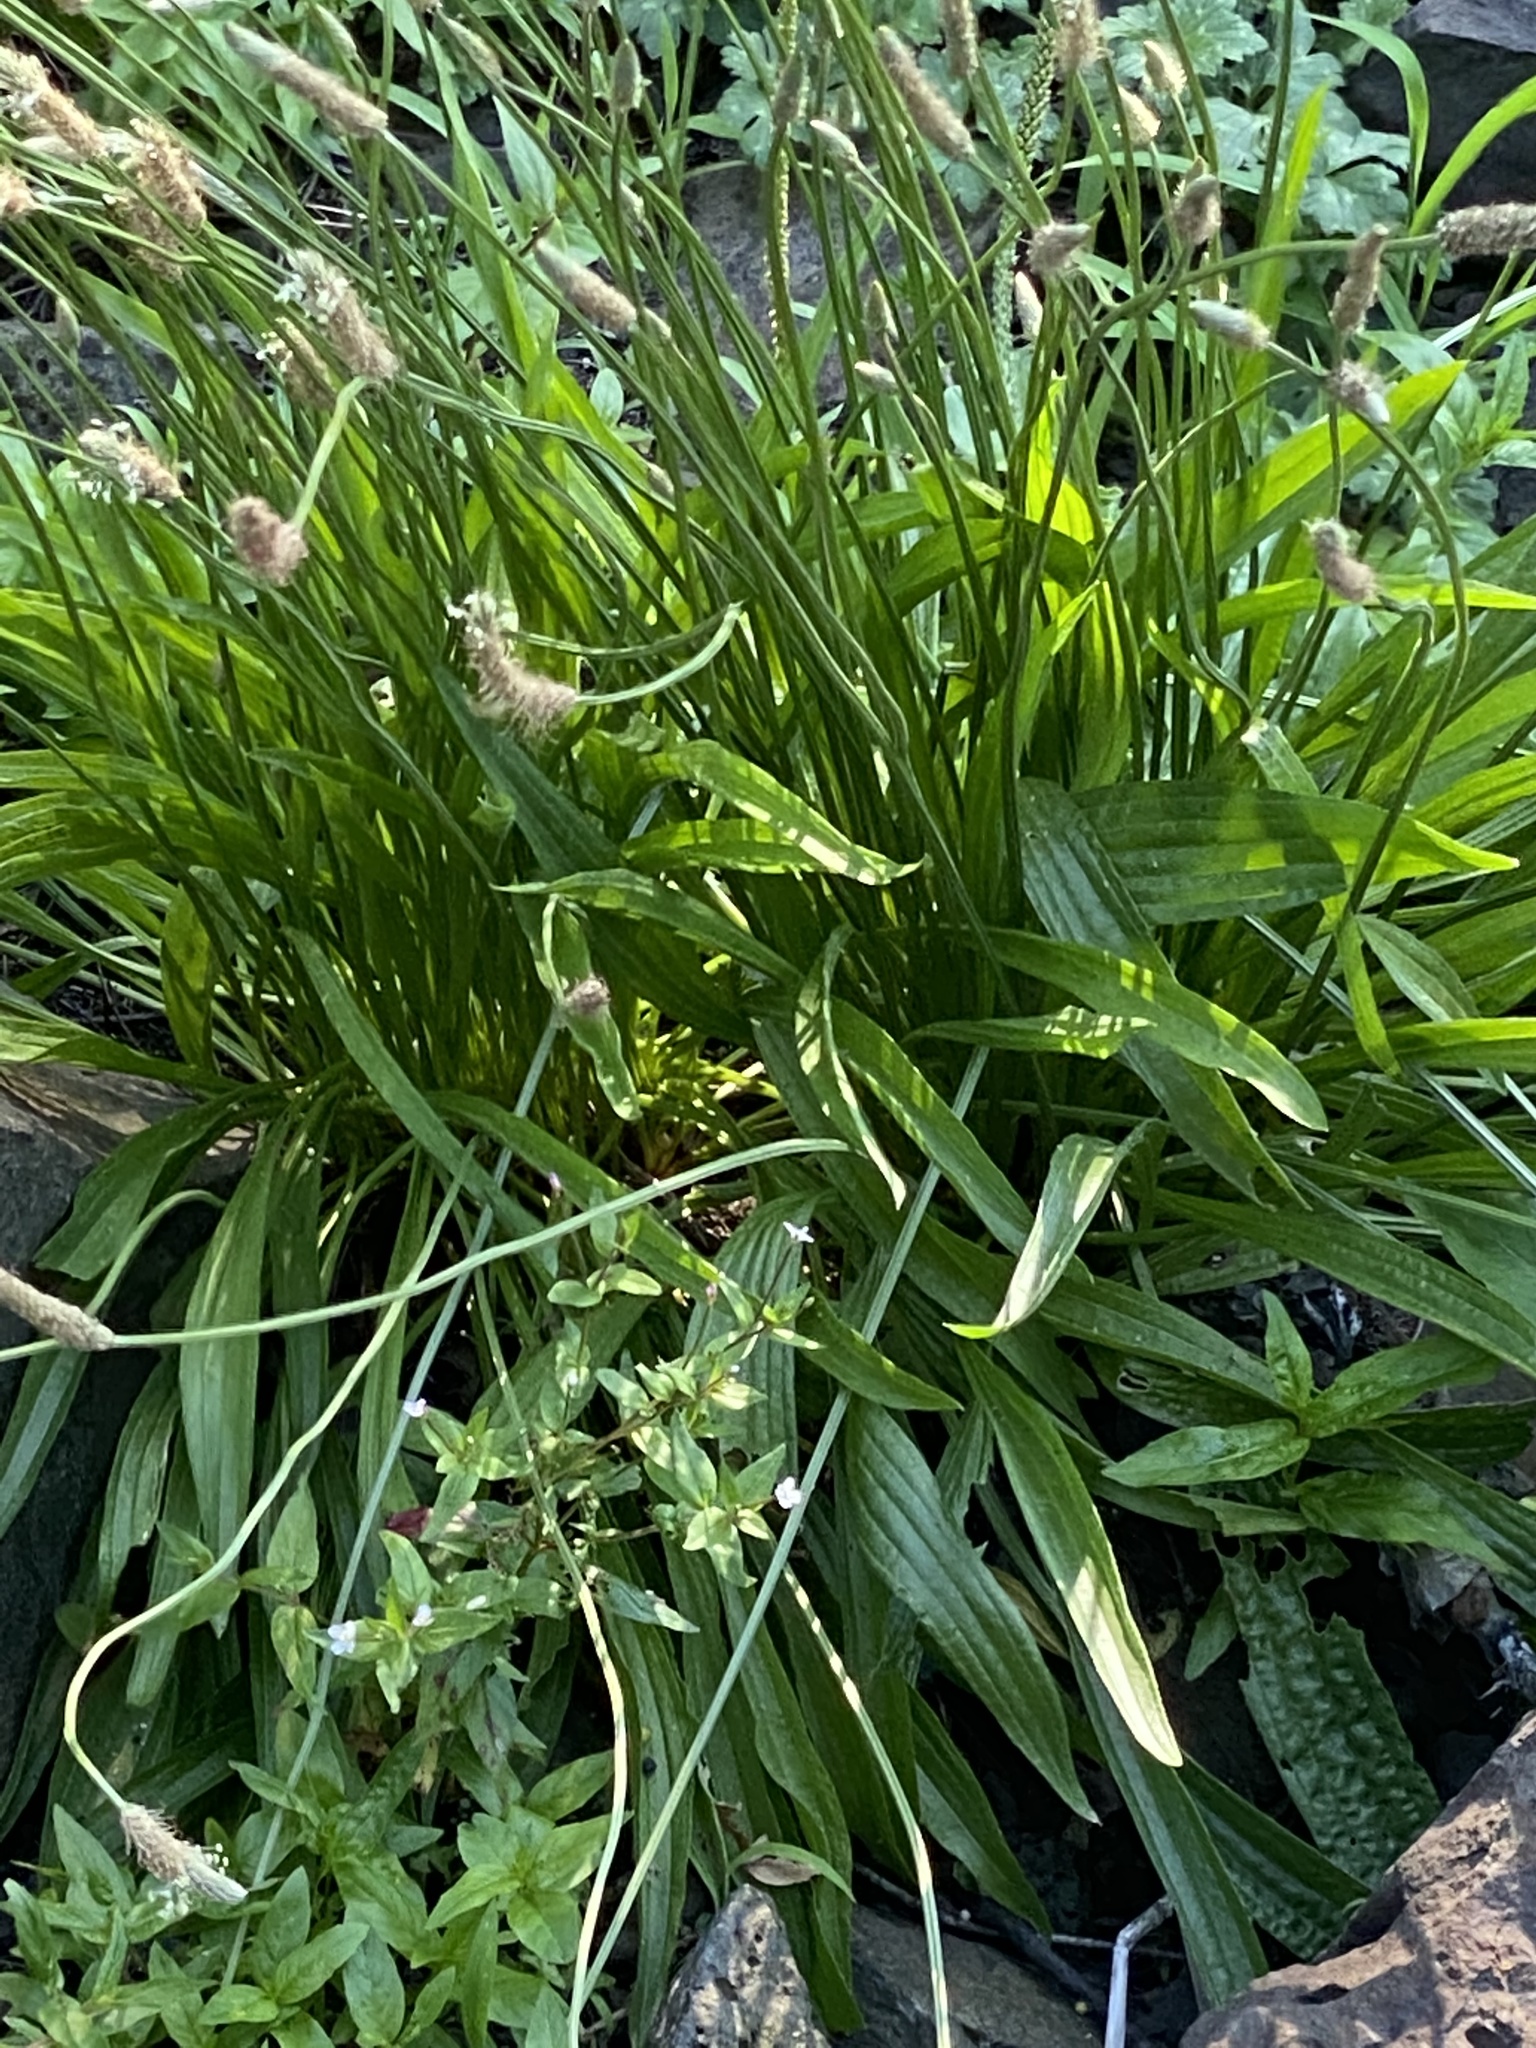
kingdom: Plantae
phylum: Tracheophyta
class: Magnoliopsida
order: Lamiales
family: Plantaginaceae
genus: Plantago
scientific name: Plantago lanceolata
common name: Ribwort plantain
